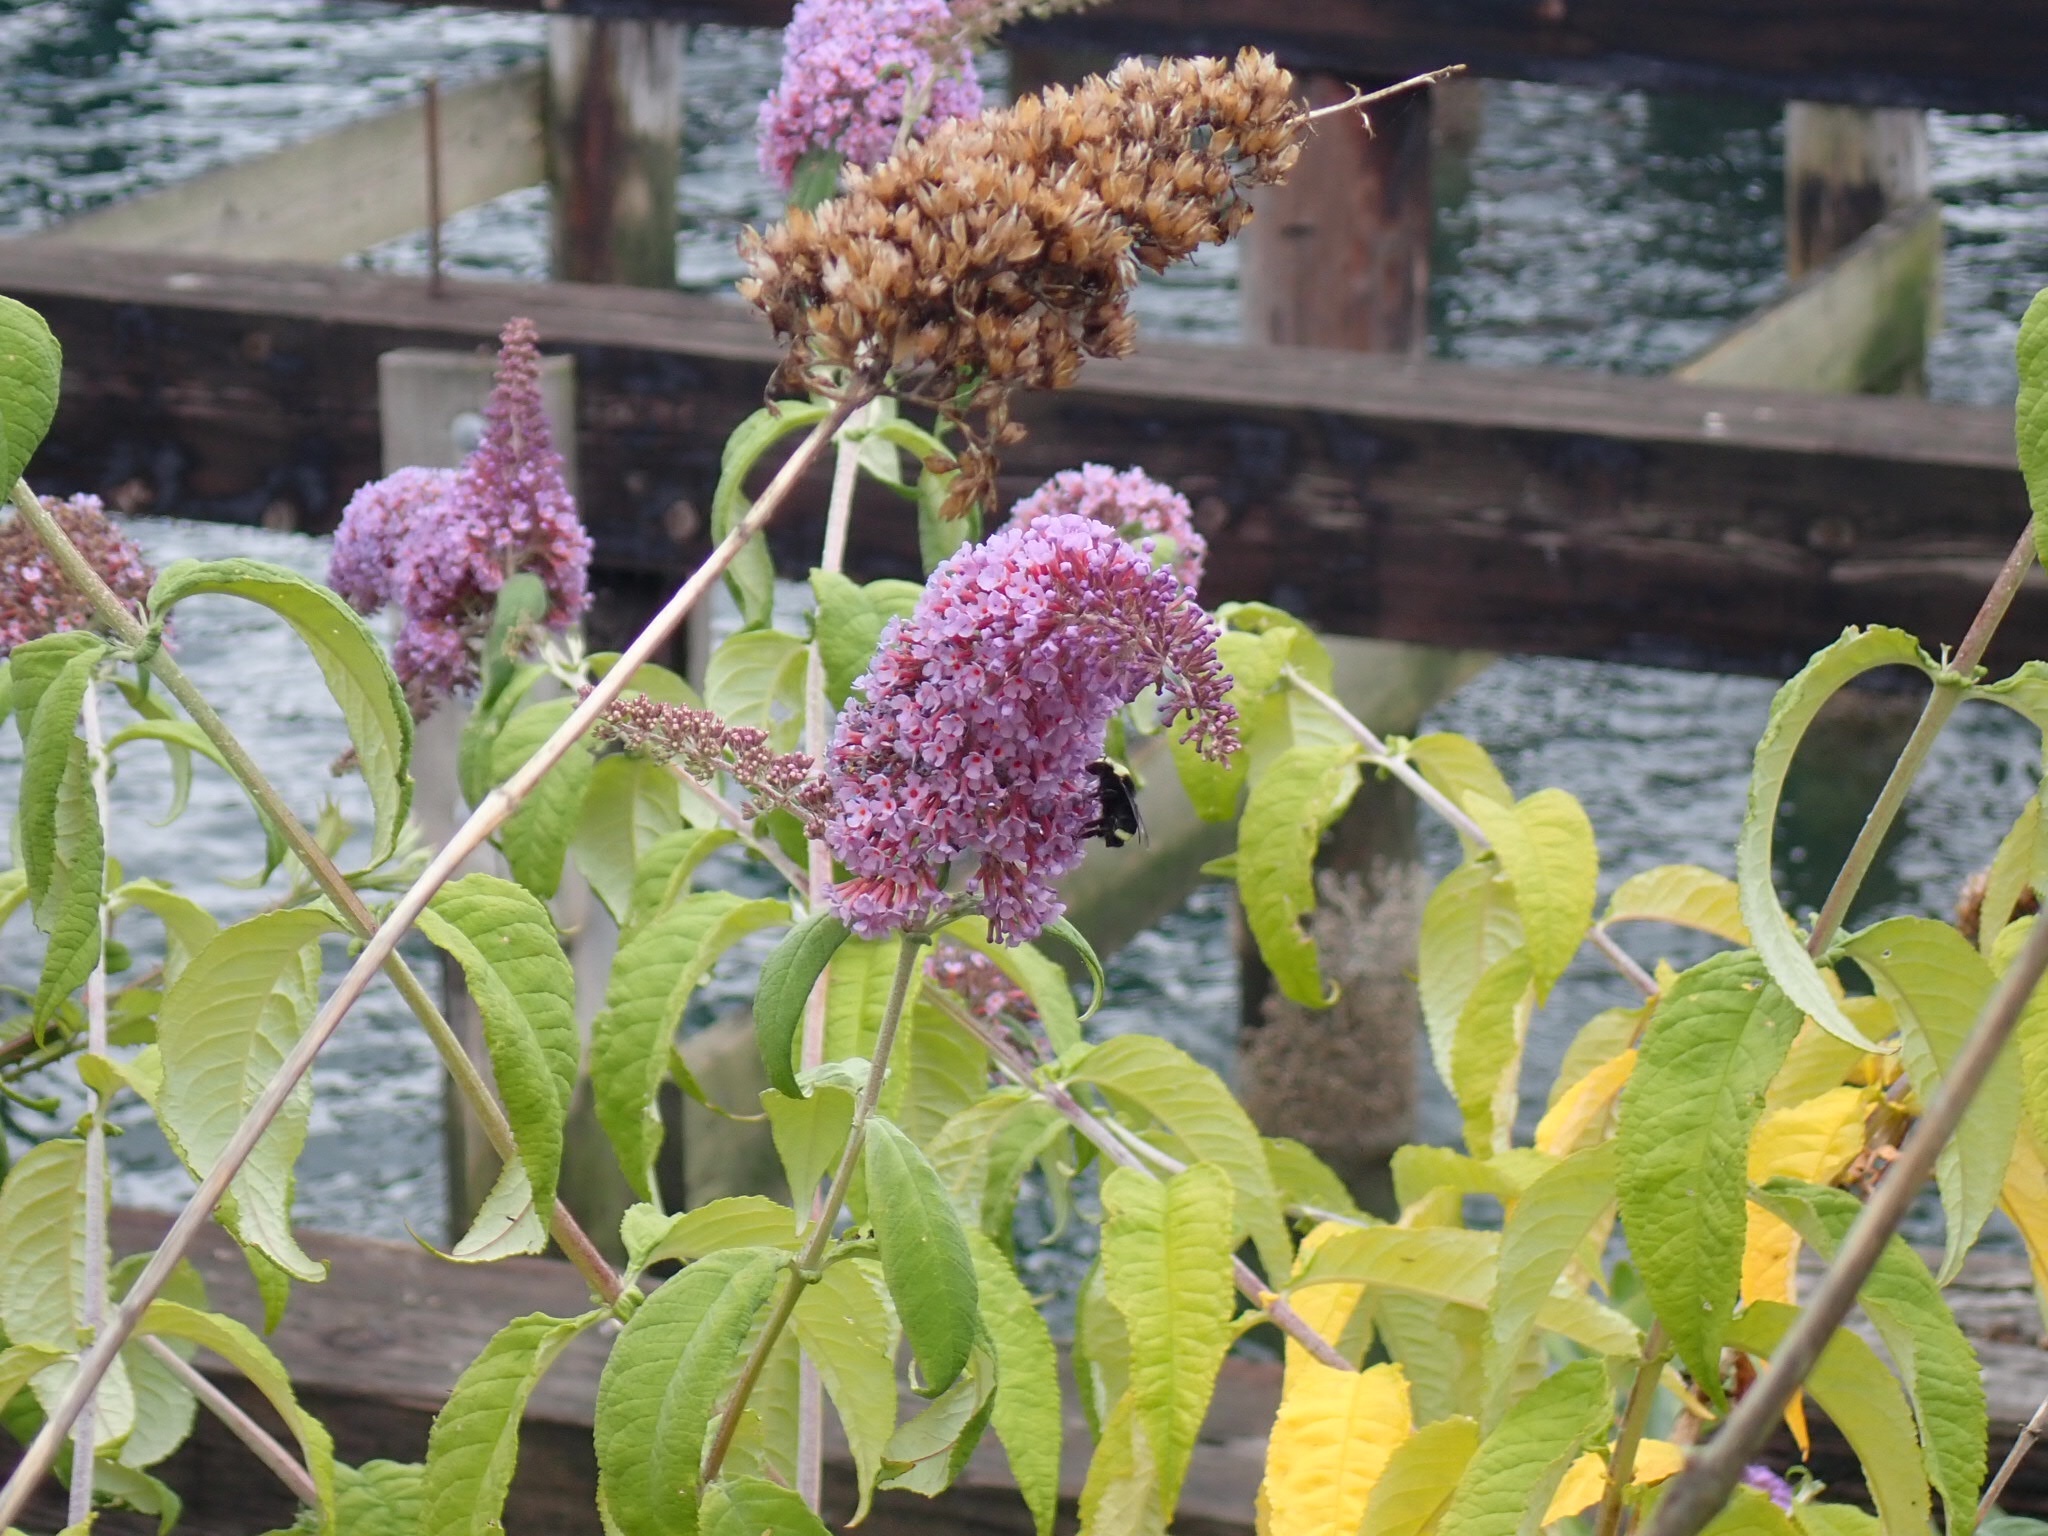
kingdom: Plantae
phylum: Tracheophyta
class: Magnoliopsida
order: Lamiales
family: Scrophulariaceae
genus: Buddleja
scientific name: Buddleja davidii
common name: Butterfly-bush
